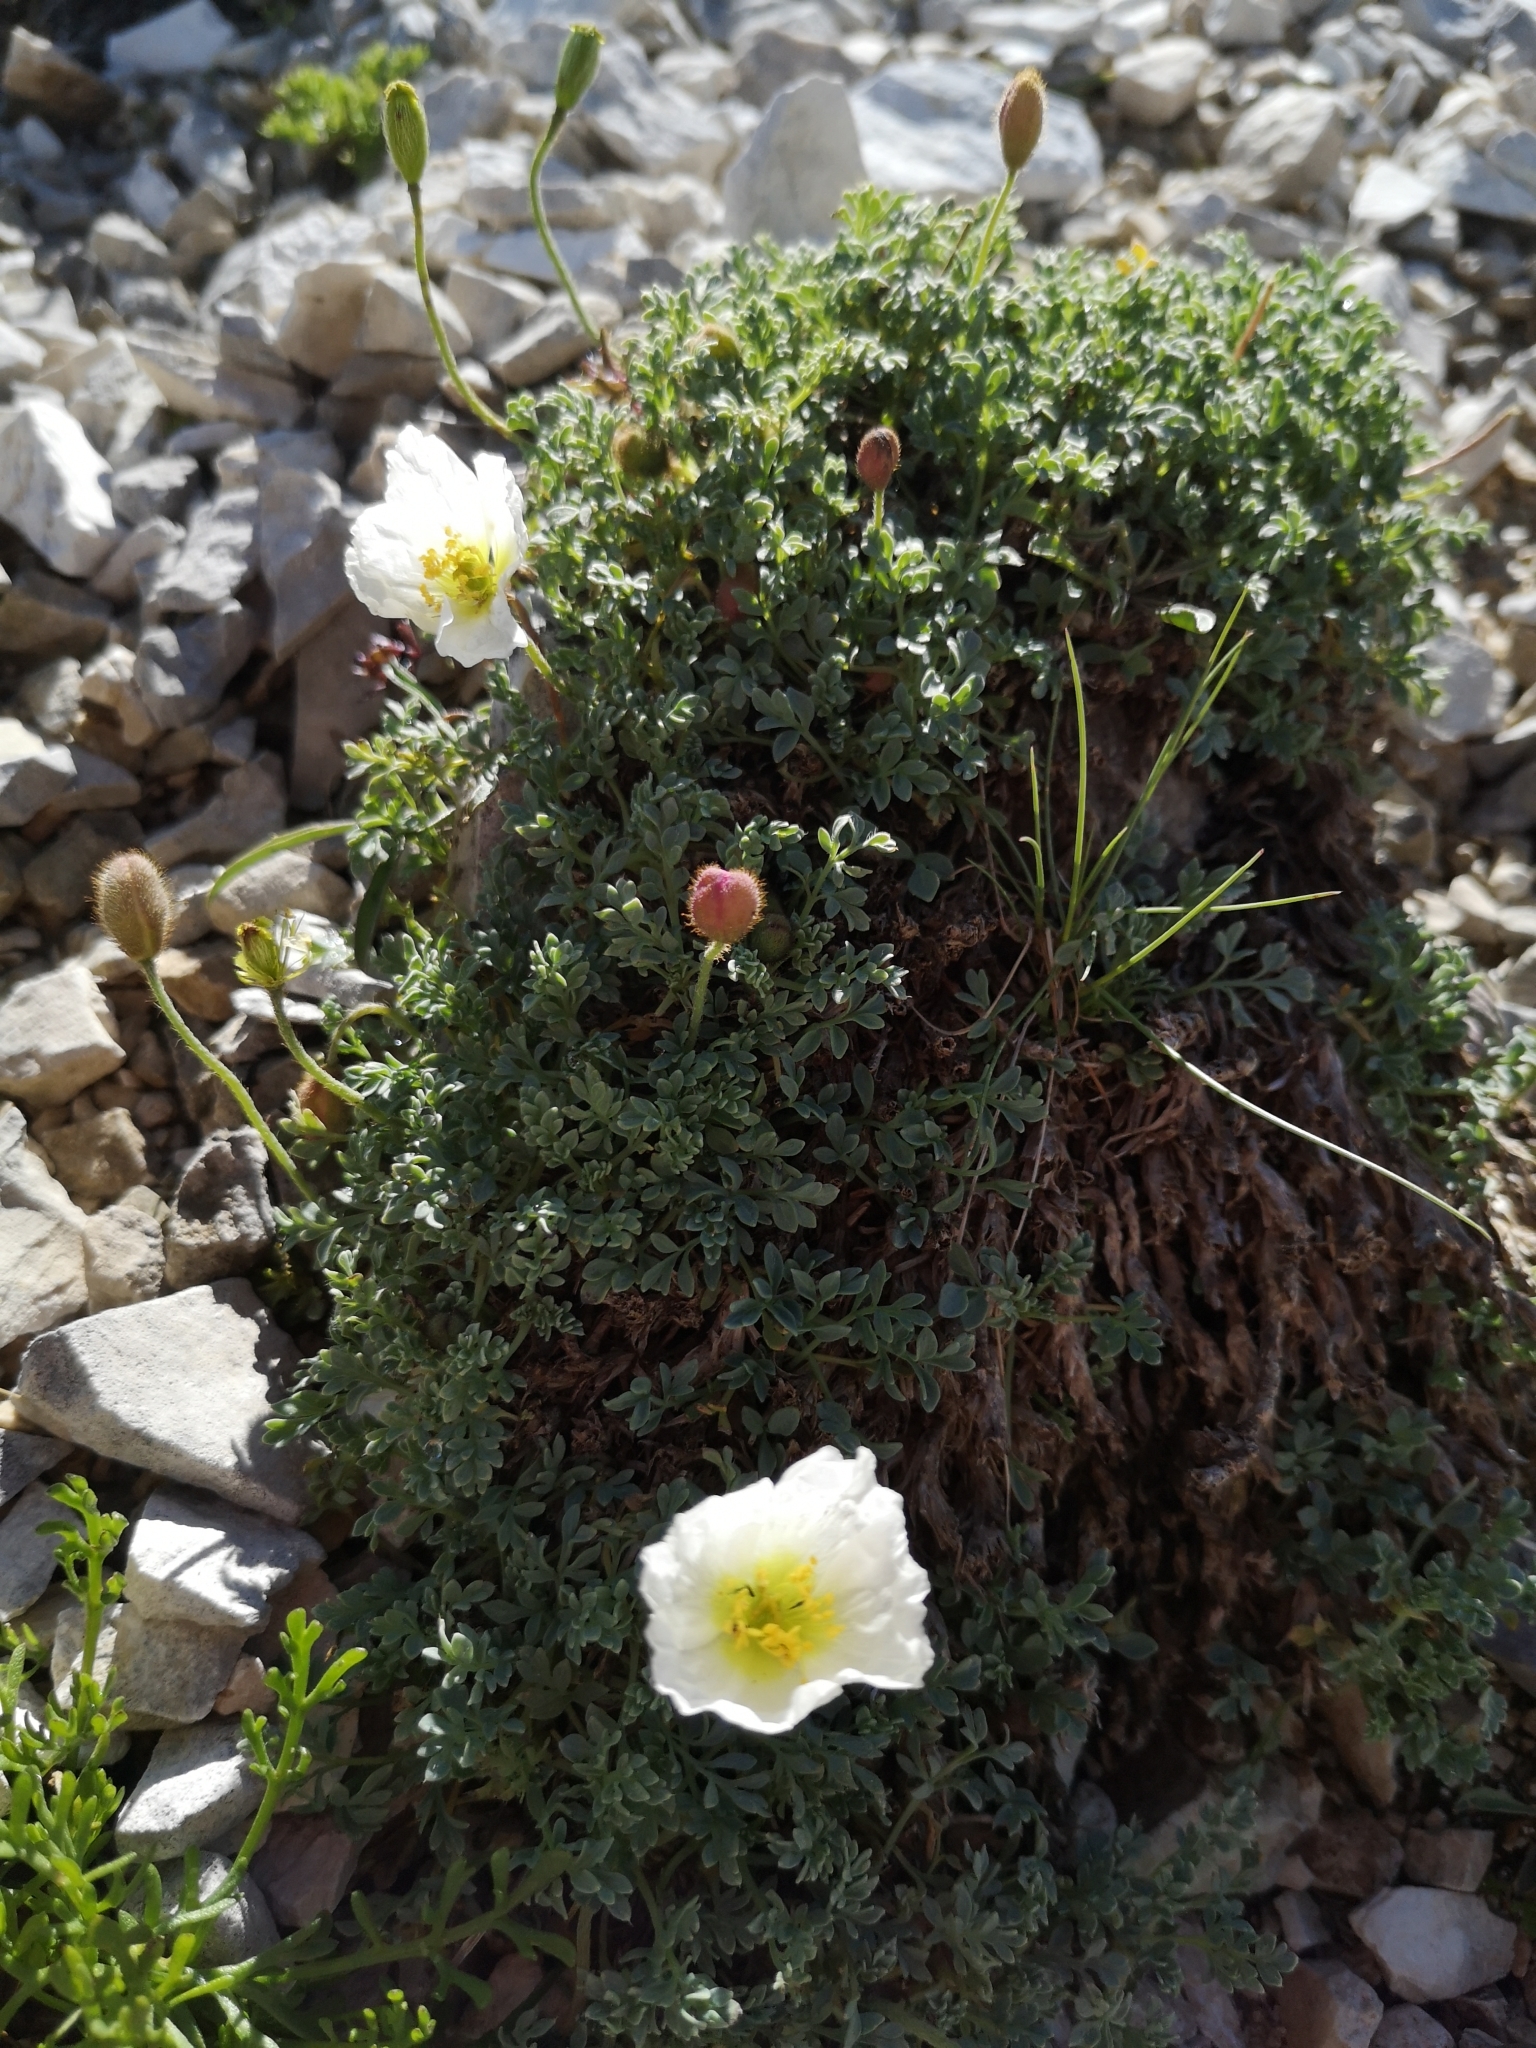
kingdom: Plantae
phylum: Tracheophyta
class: Magnoliopsida
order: Ranunculales
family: Papaveraceae
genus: Papaver
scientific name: Papaver alpinum
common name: Austrian poppy
